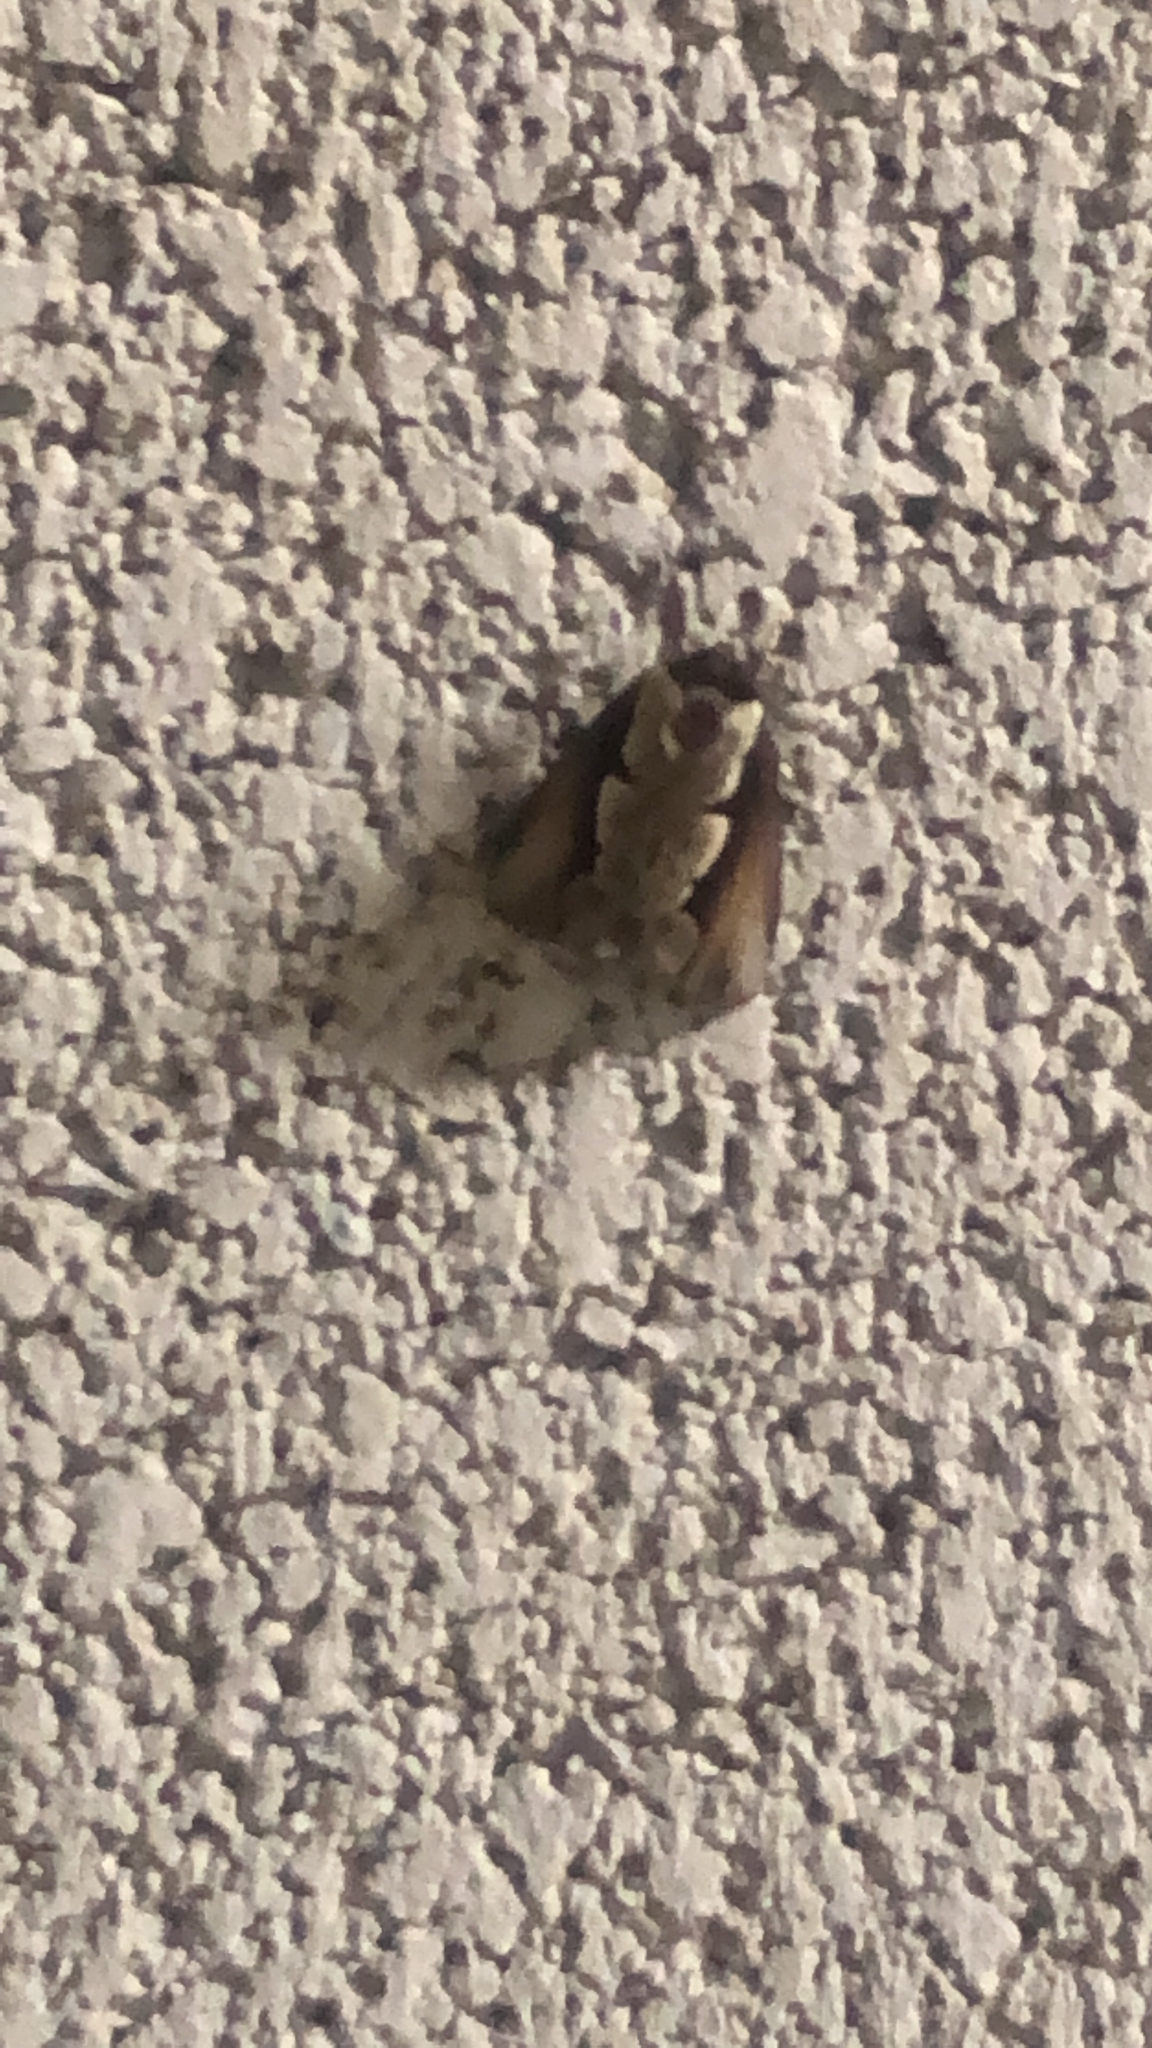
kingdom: Animalia
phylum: Arthropoda
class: Insecta
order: Lepidoptera
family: Notodontidae
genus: Nerice
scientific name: Nerice bidentata
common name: Double-toothed prominent
